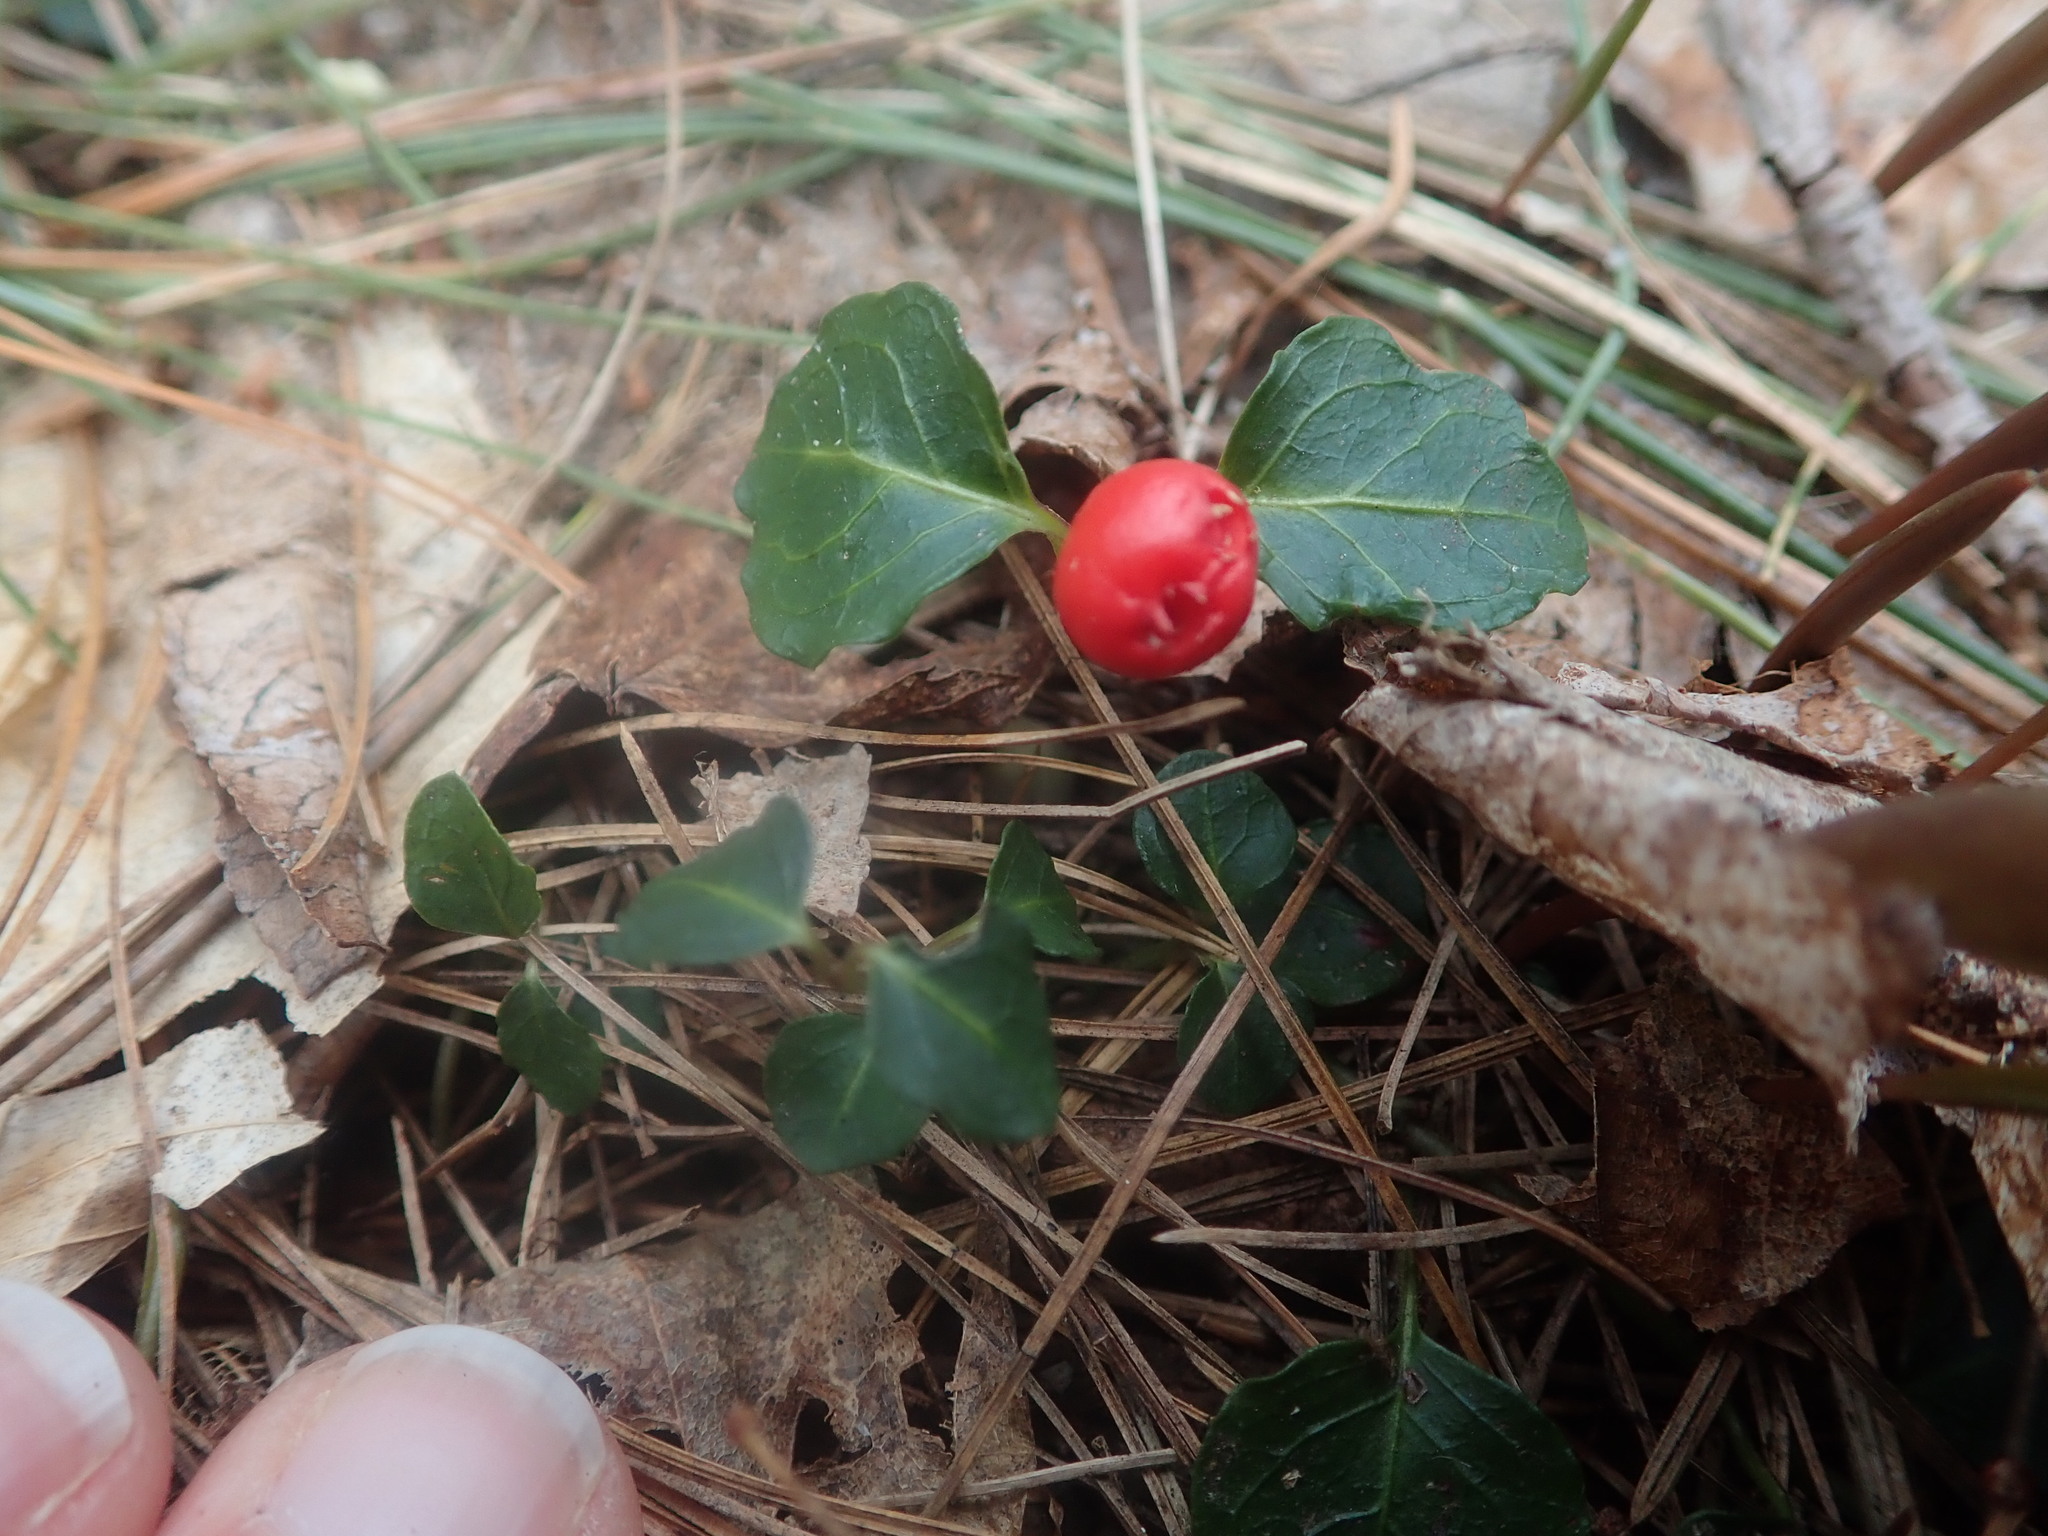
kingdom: Plantae
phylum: Tracheophyta
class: Magnoliopsida
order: Gentianales
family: Rubiaceae
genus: Mitchella
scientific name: Mitchella repens
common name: Partridge-berry
